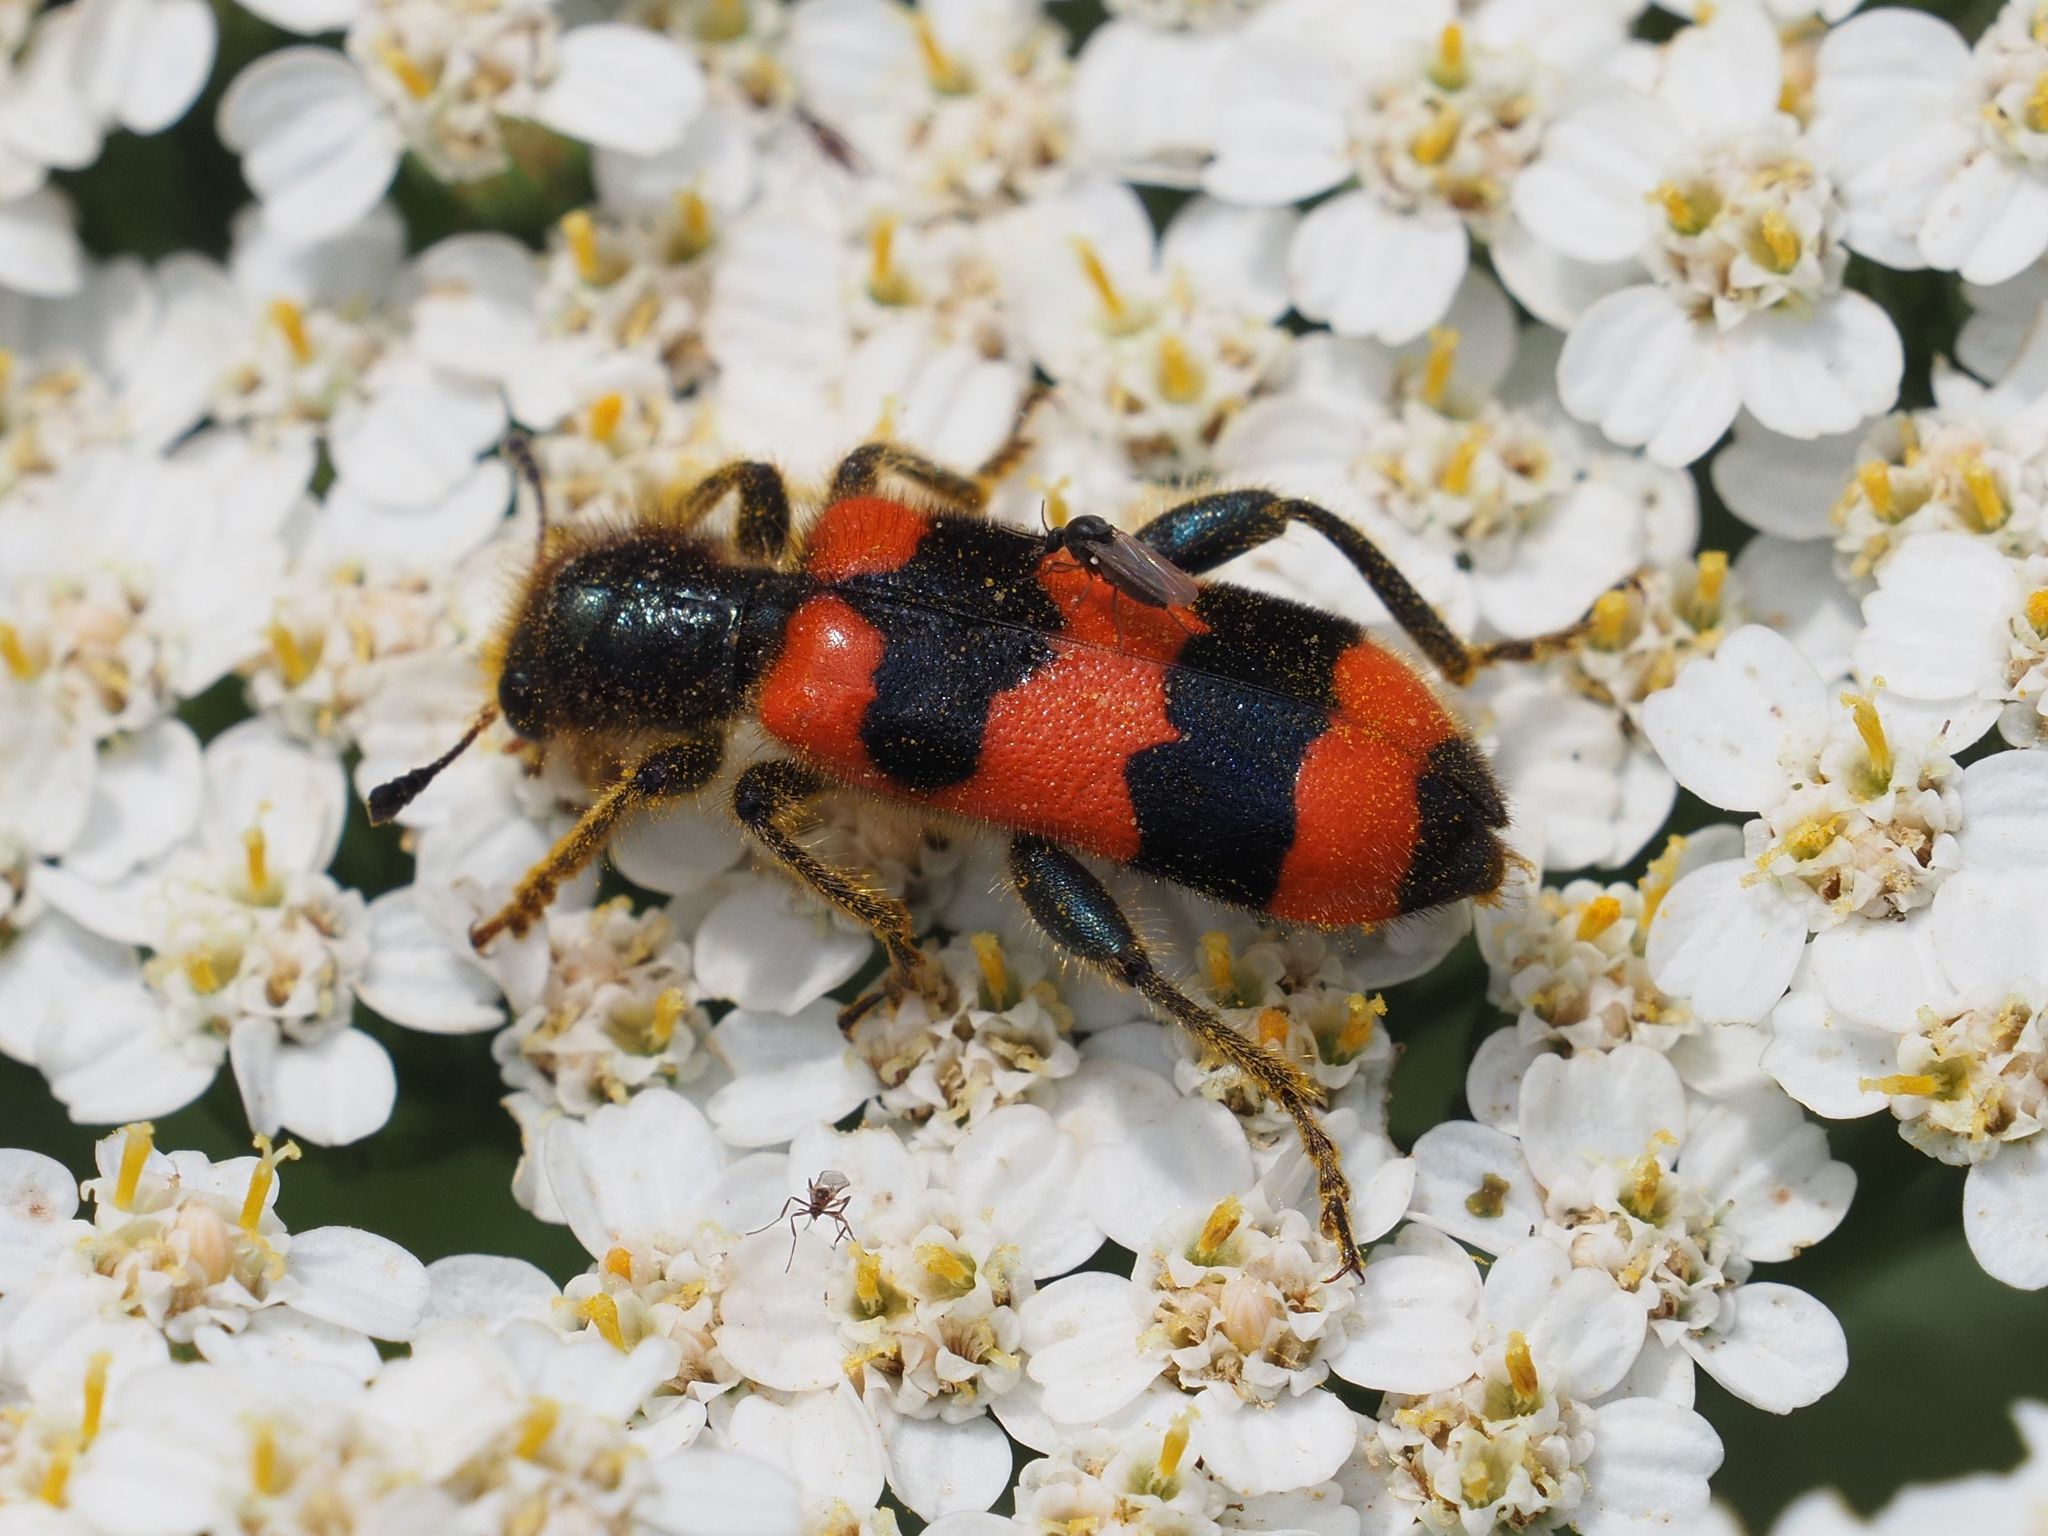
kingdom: Animalia
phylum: Arthropoda
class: Insecta
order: Coleoptera
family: Cleridae
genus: Trichodes
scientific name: Trichodes apiarius
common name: Bee-eating beetle
